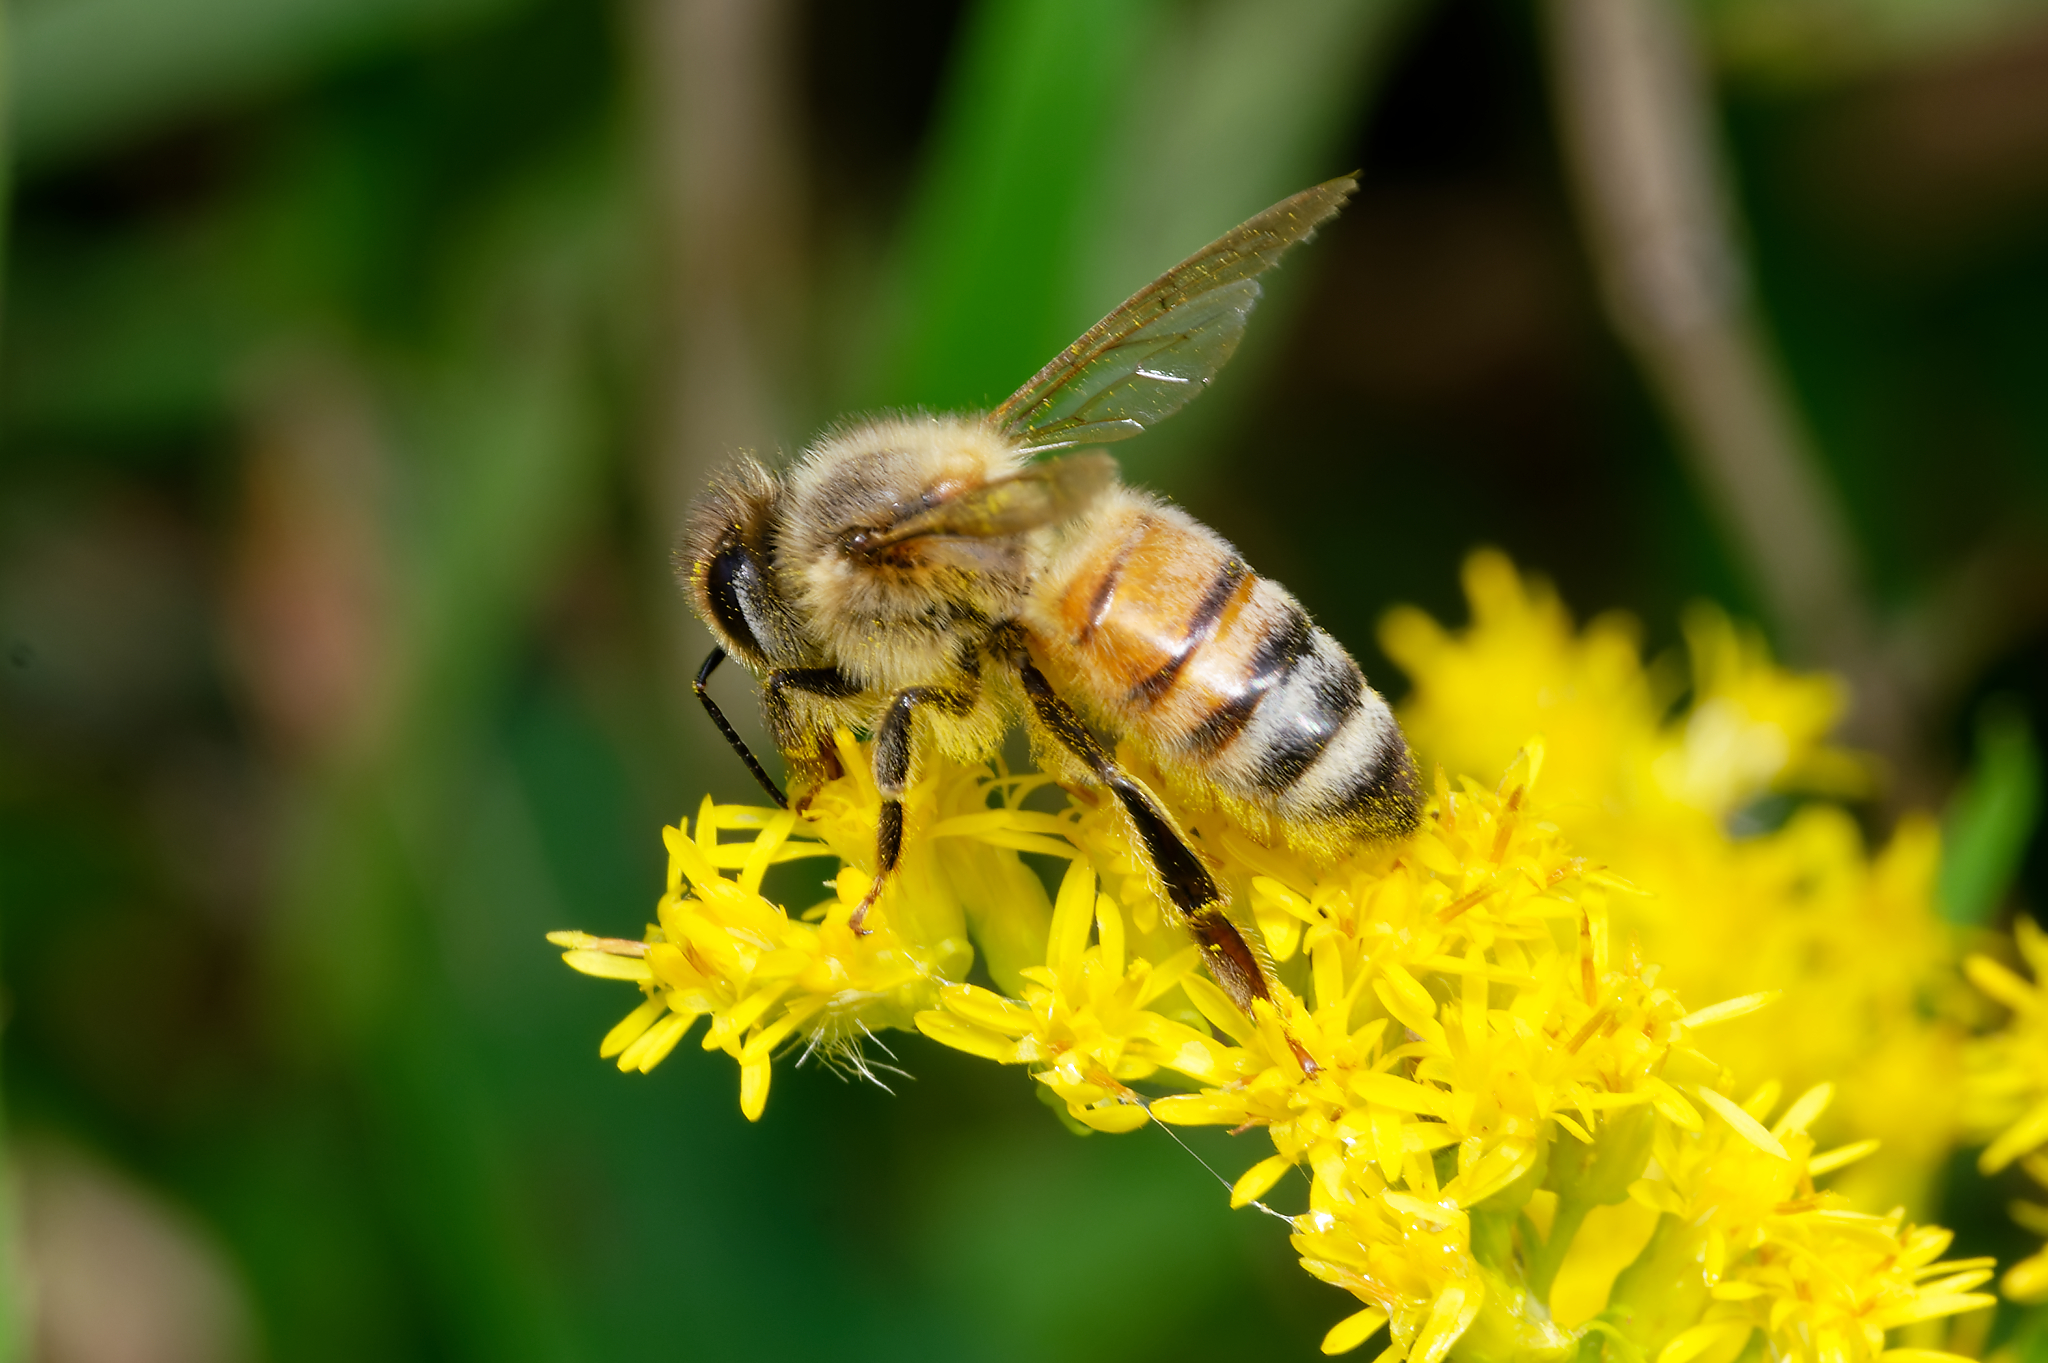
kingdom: Animalia
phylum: Arthropoda
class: Insecta
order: Hymenoptera
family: Apidae
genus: Apis
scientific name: Apis mellifera
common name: Honey bee
